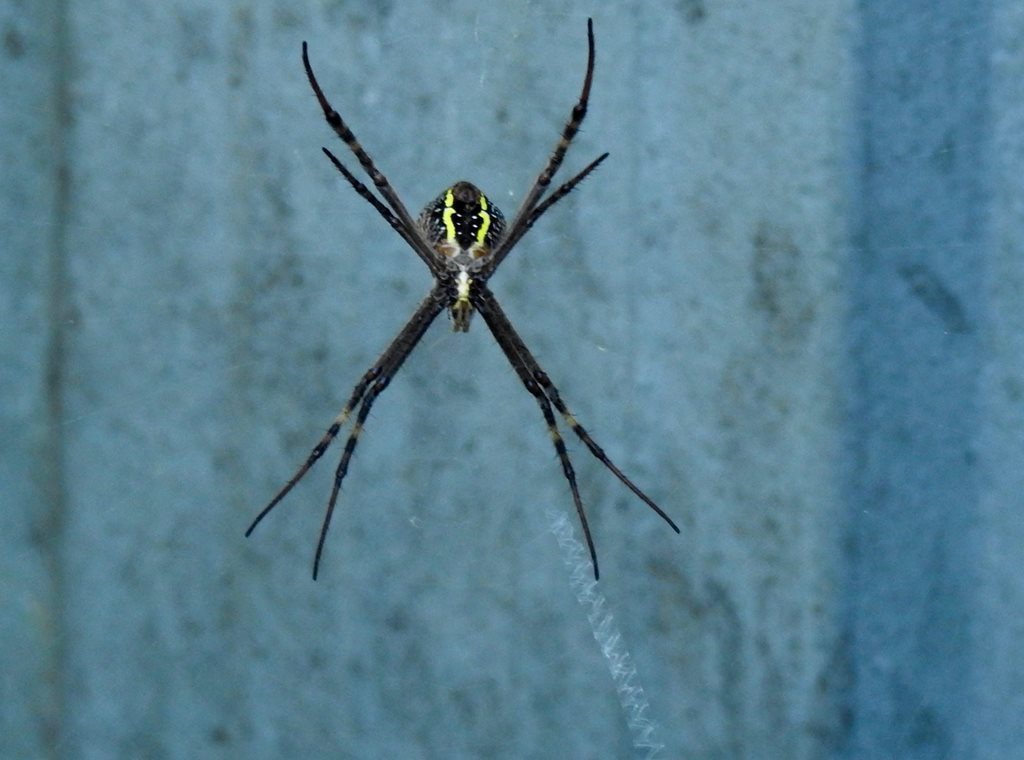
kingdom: Animalia
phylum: Arthropoda
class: Arachnida
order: Araneae
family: Araneidae
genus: Argiope
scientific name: Argiope keyserlingi
